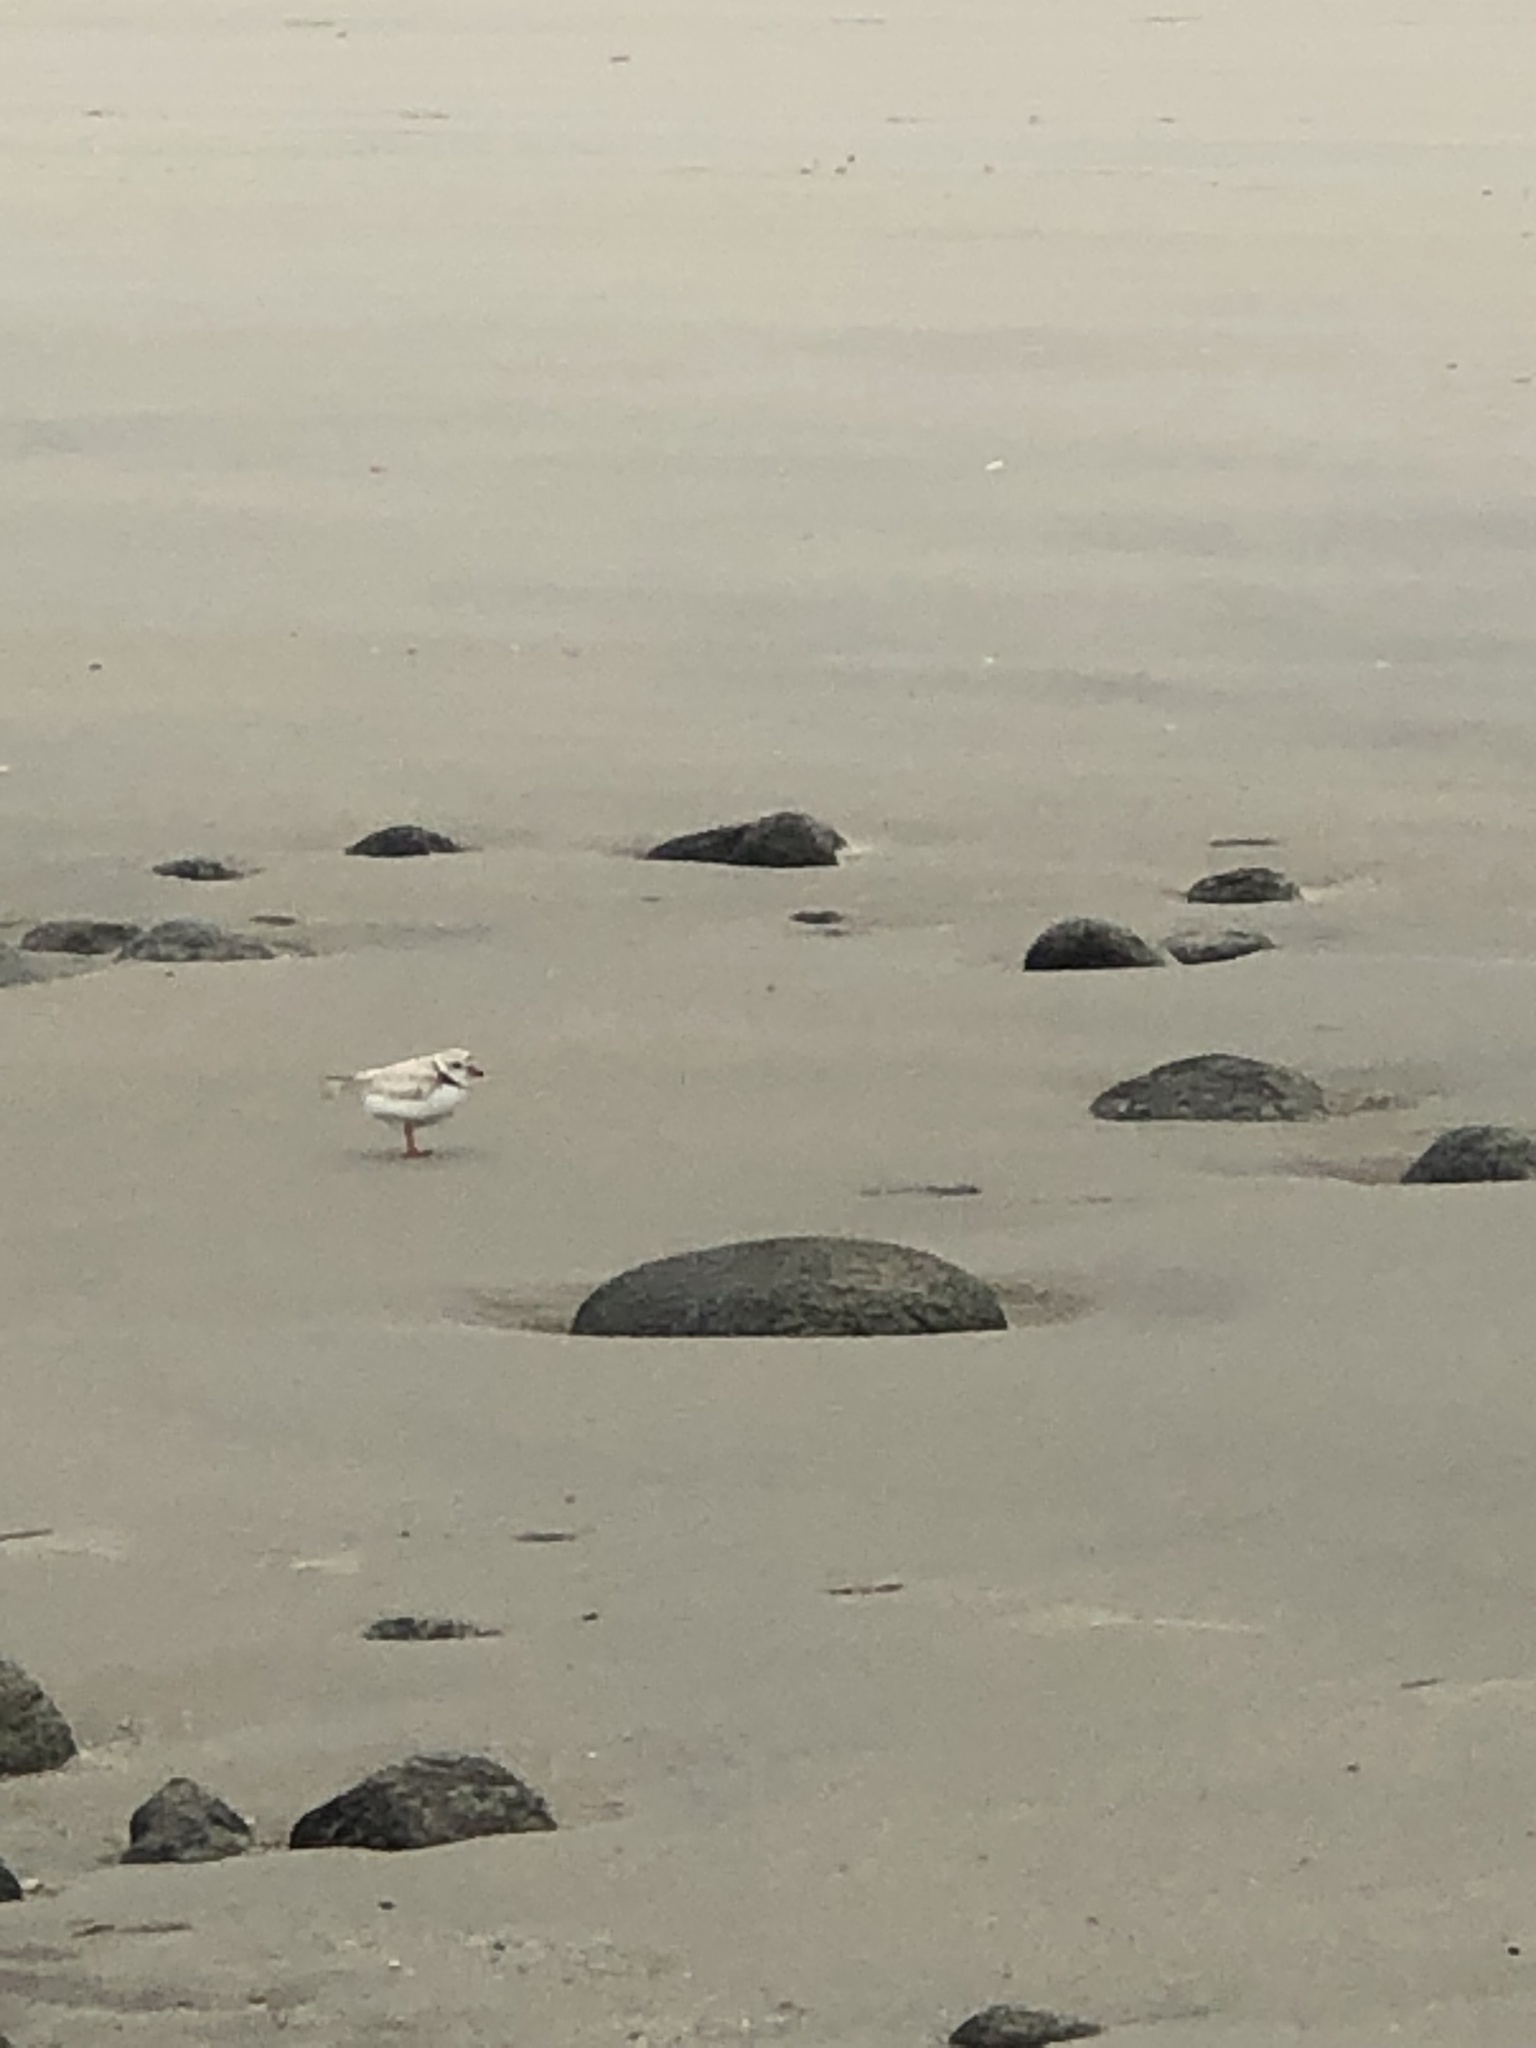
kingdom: Animalia
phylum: Chordata
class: Aves
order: Charadriiformes
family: Charadriidae
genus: Charadrius
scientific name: Charadrius melodus
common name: Piping plover
